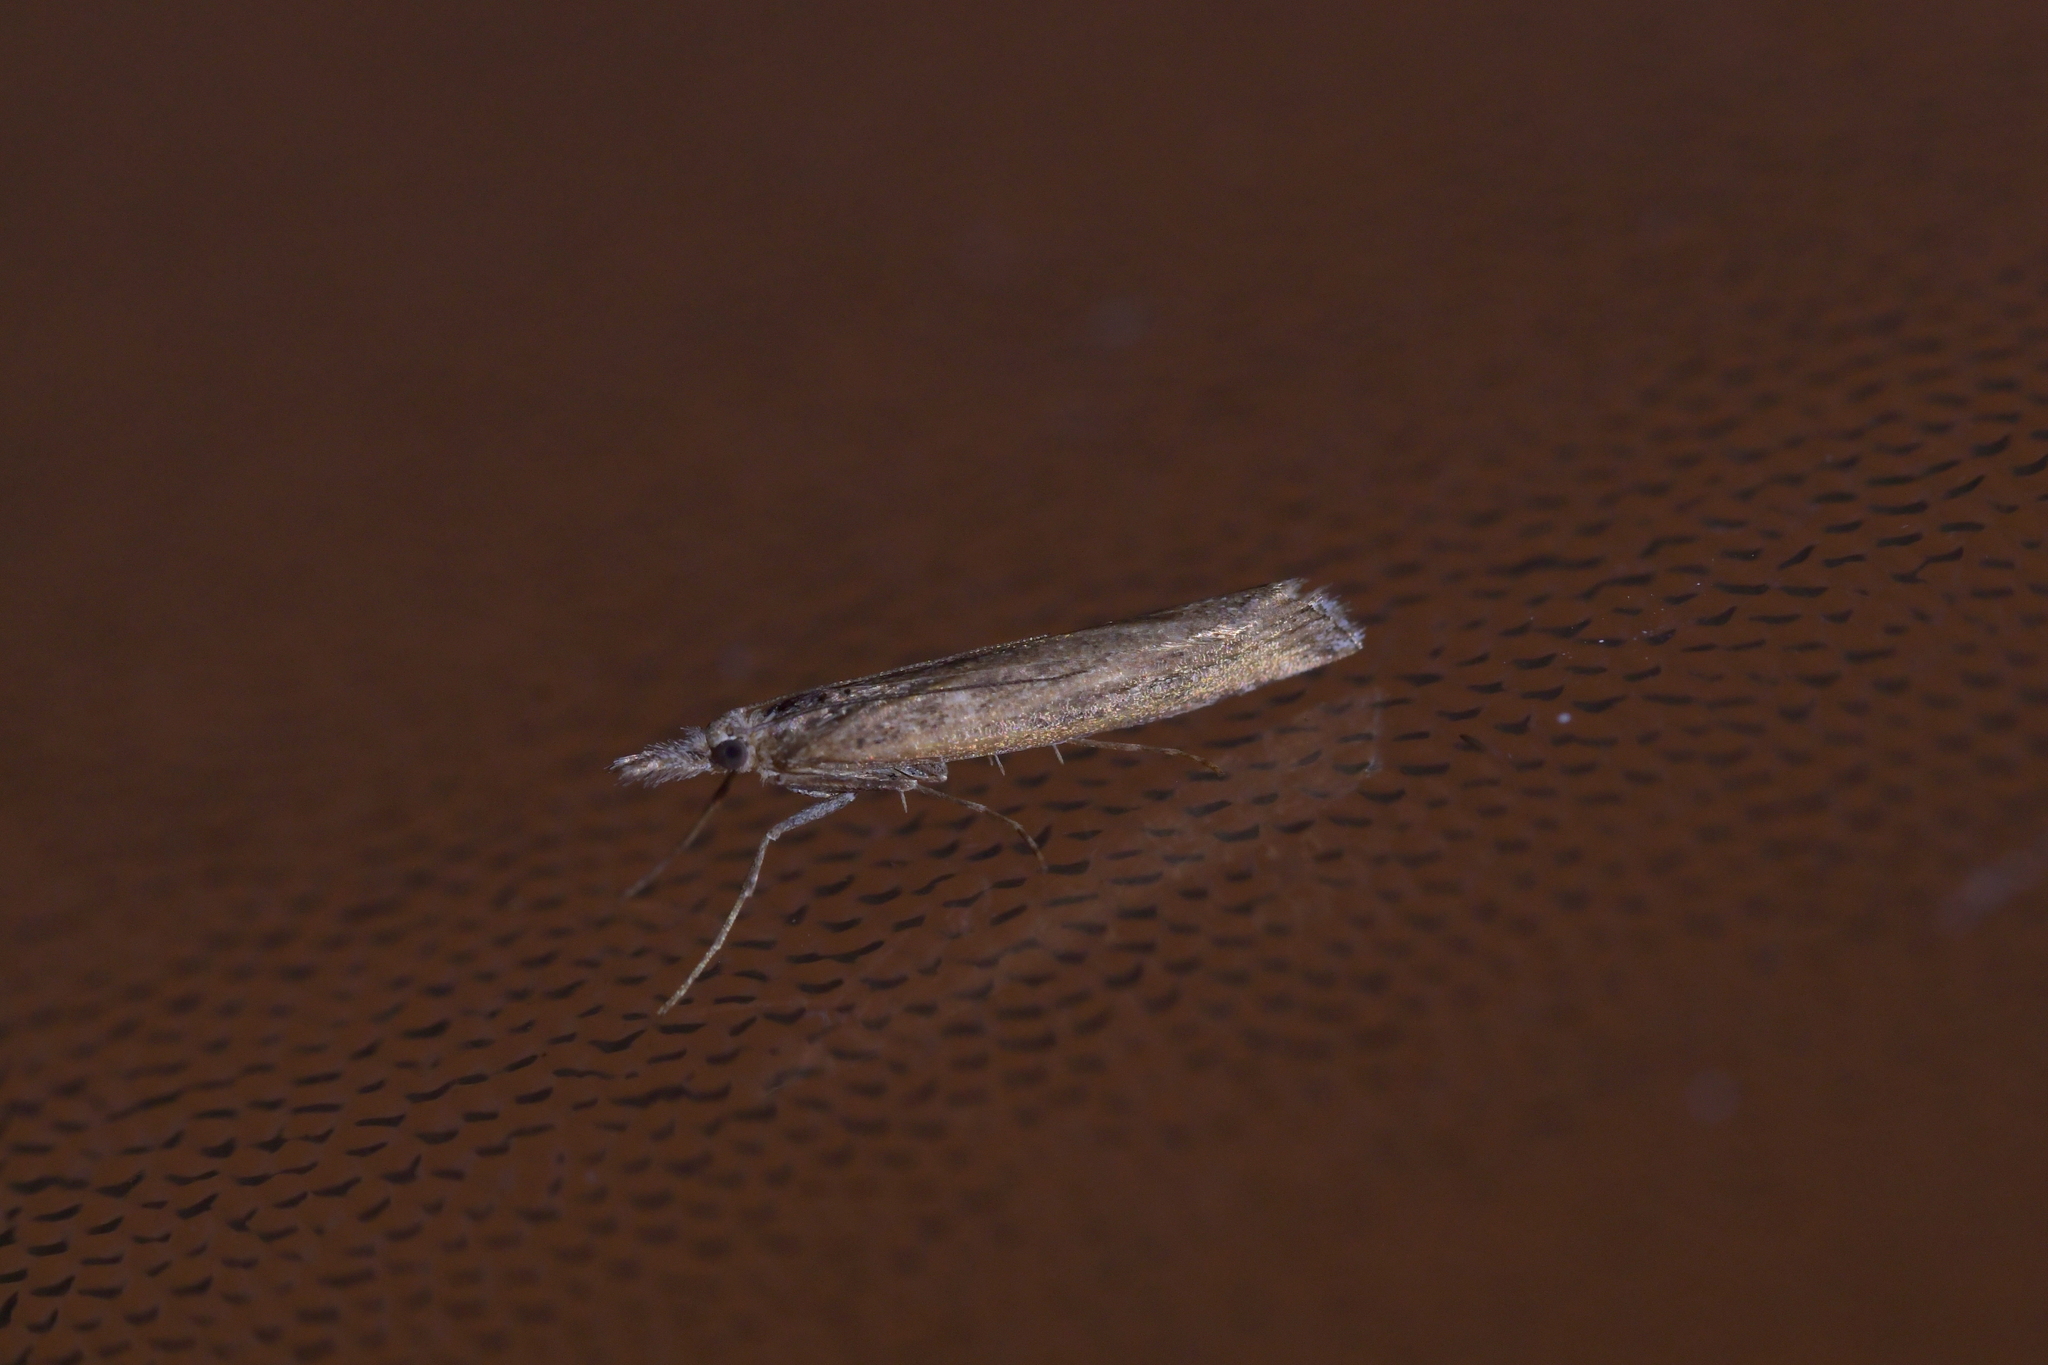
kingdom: Animalia
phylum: Arthropoda
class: Insecta
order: Lepidoptera
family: Crambidae
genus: Orocrambus
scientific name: Orocrambus cyclopicus
